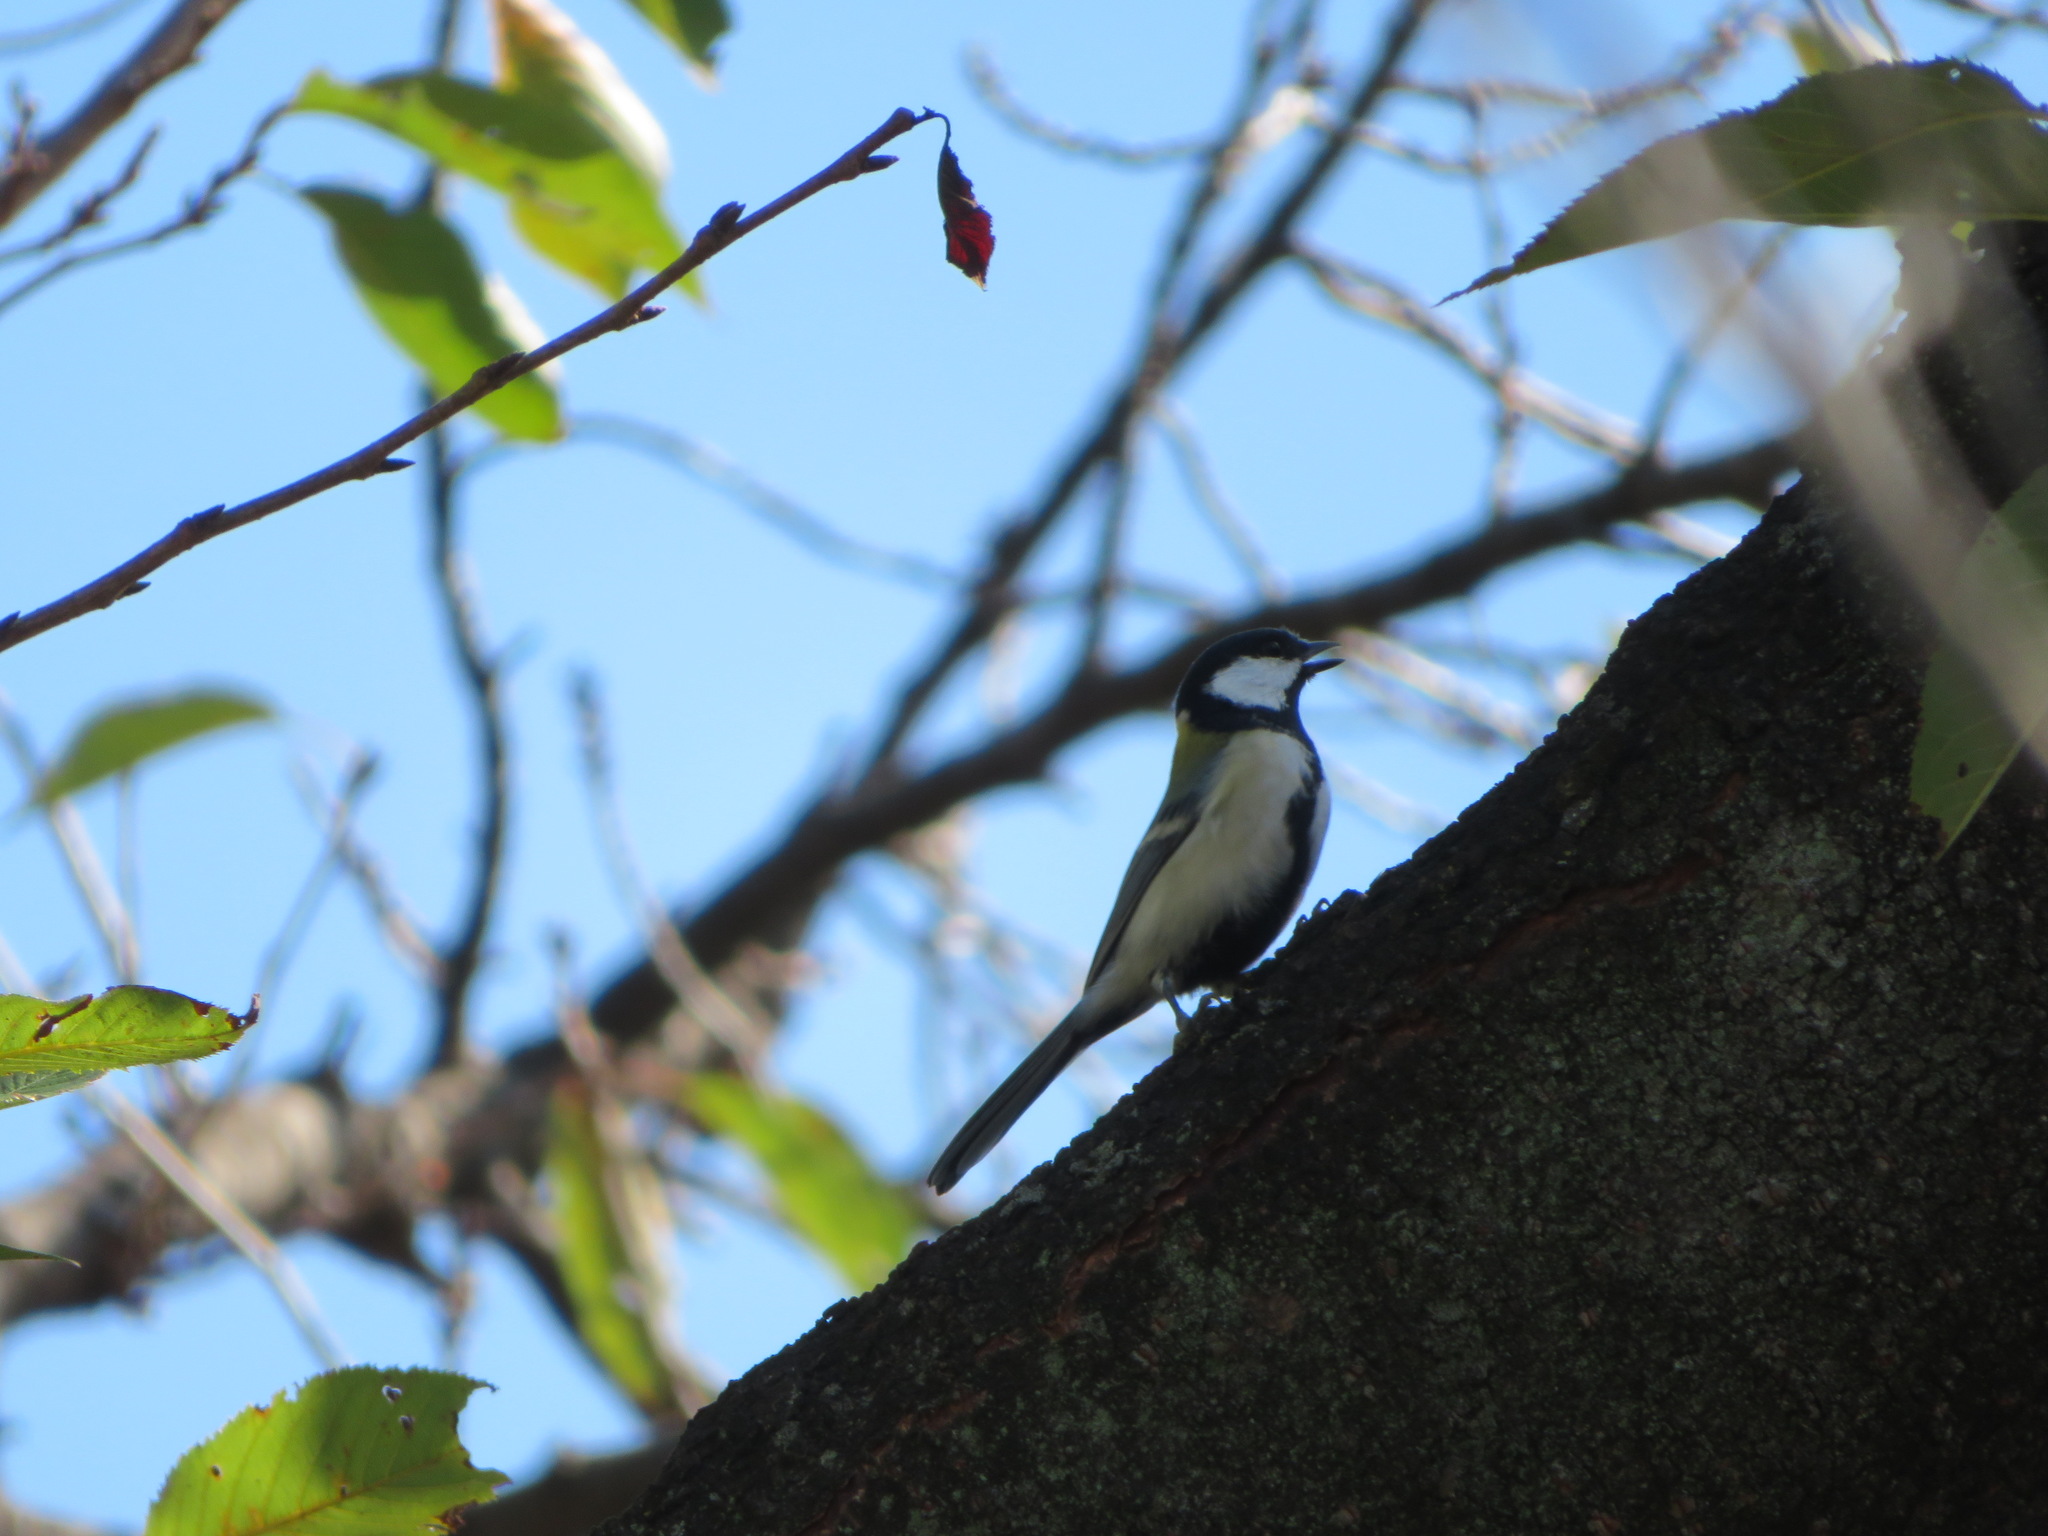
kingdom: Animalia
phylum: Chordata
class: Aves
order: Passeriformes
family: Paridae
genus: Parus
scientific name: Parus minor
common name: Japanese tit
